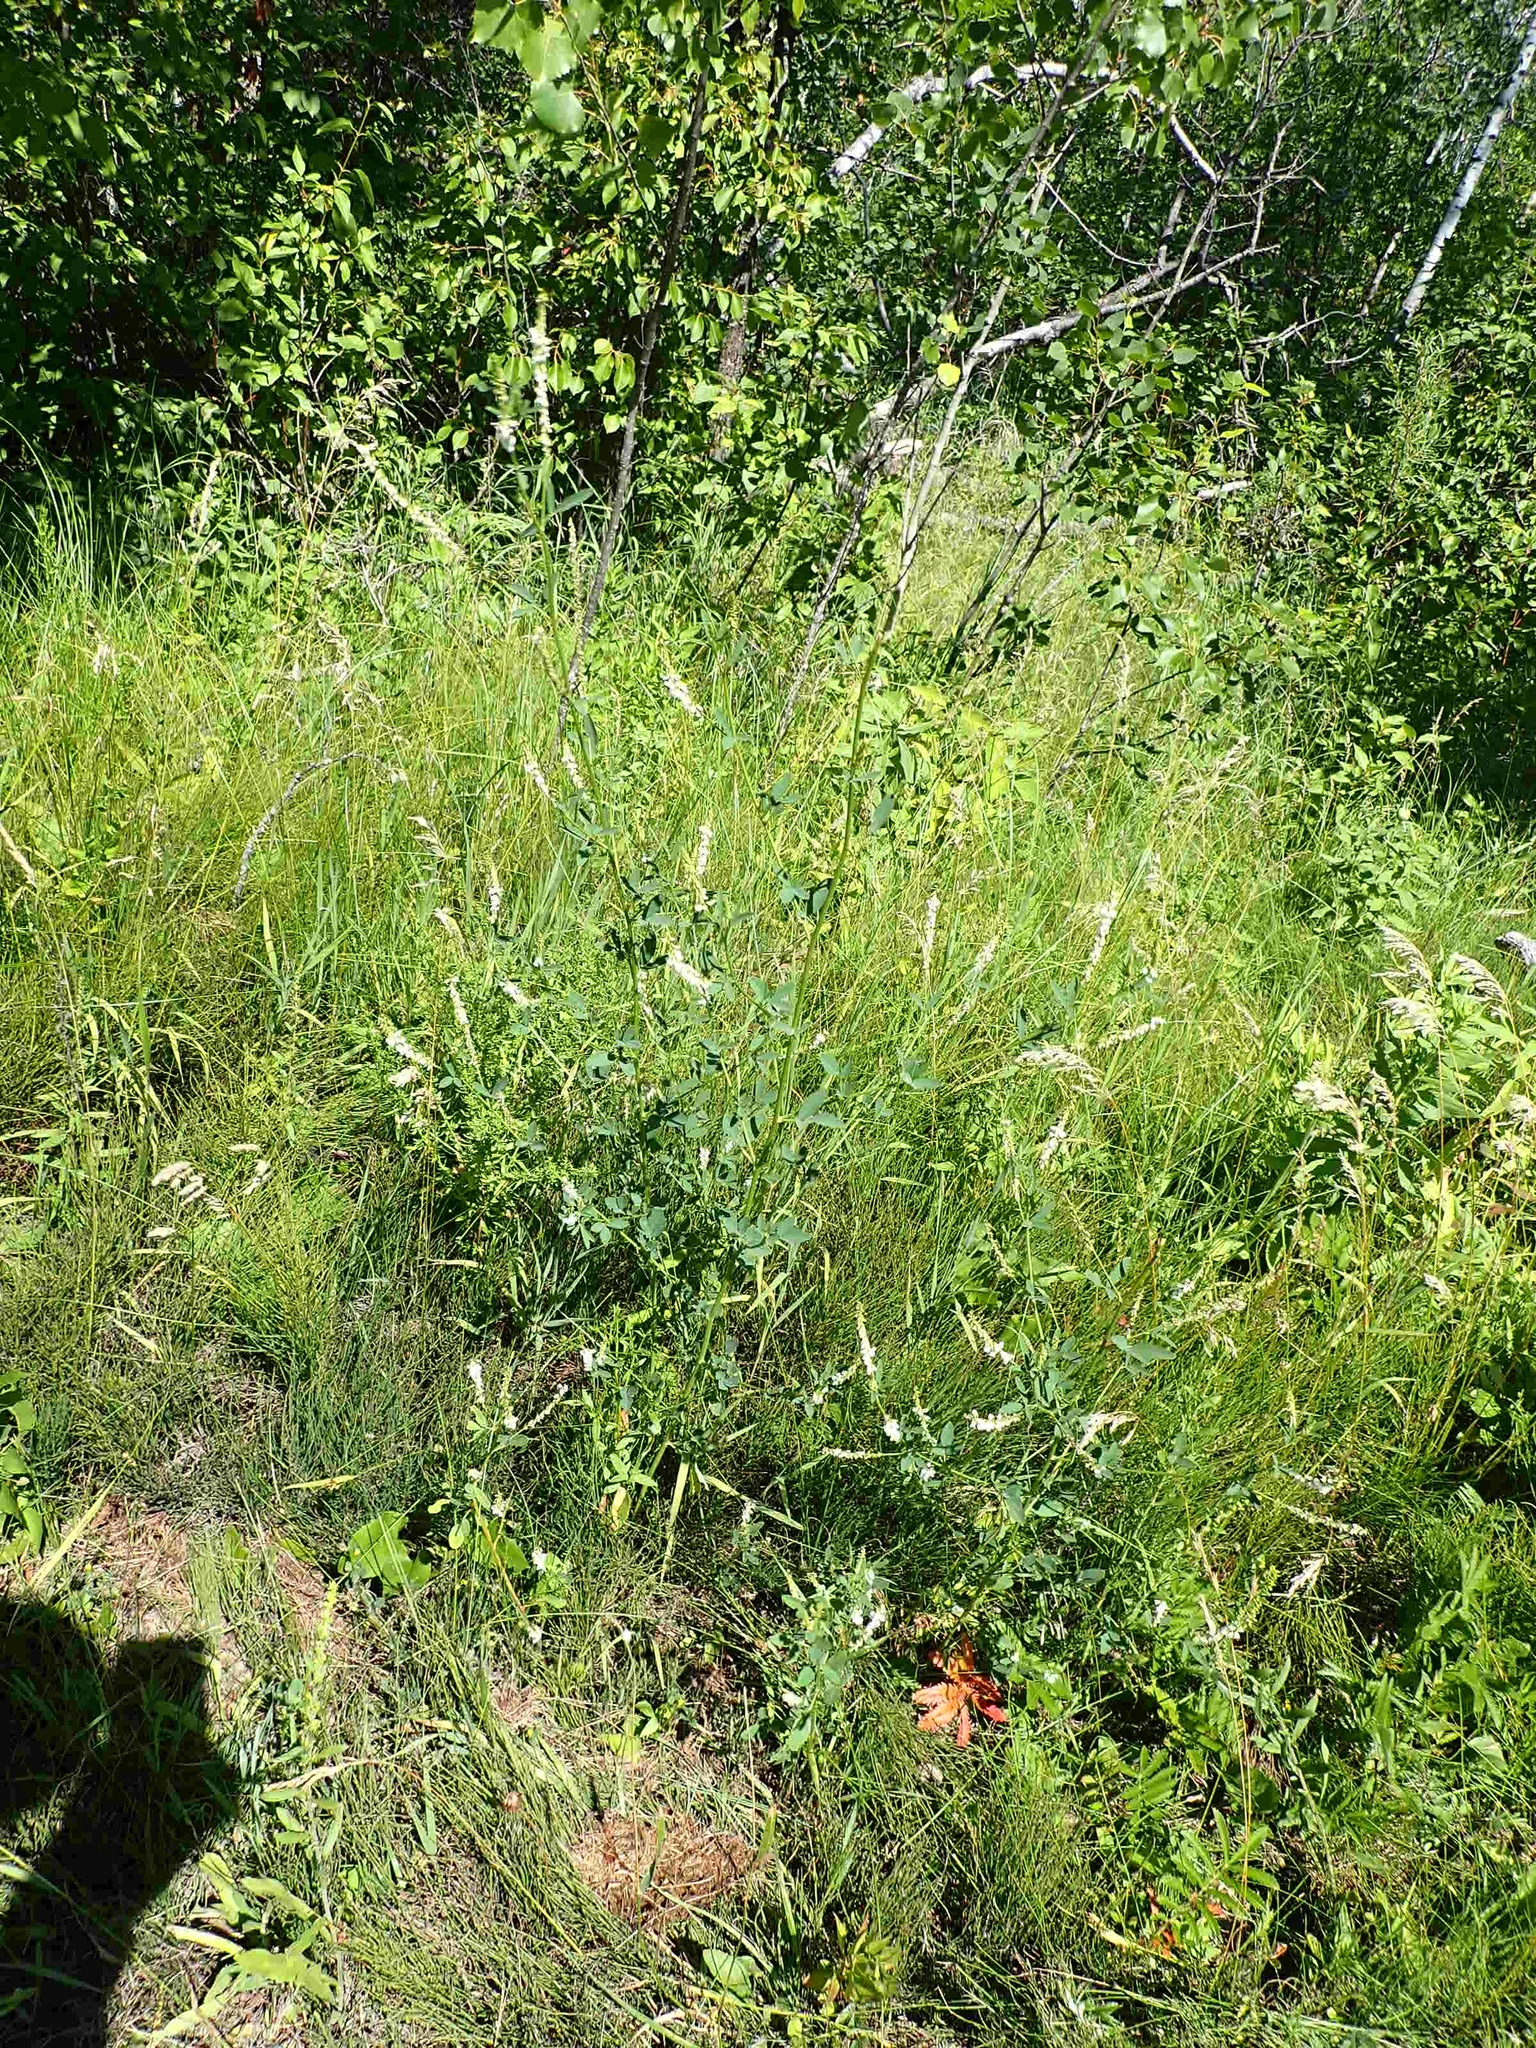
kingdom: Plantae
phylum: Tracheophyta
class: Magnoliopsida
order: Fabales
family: Fabaceae
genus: Melilotus
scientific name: Melilotus albus
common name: White melilot
